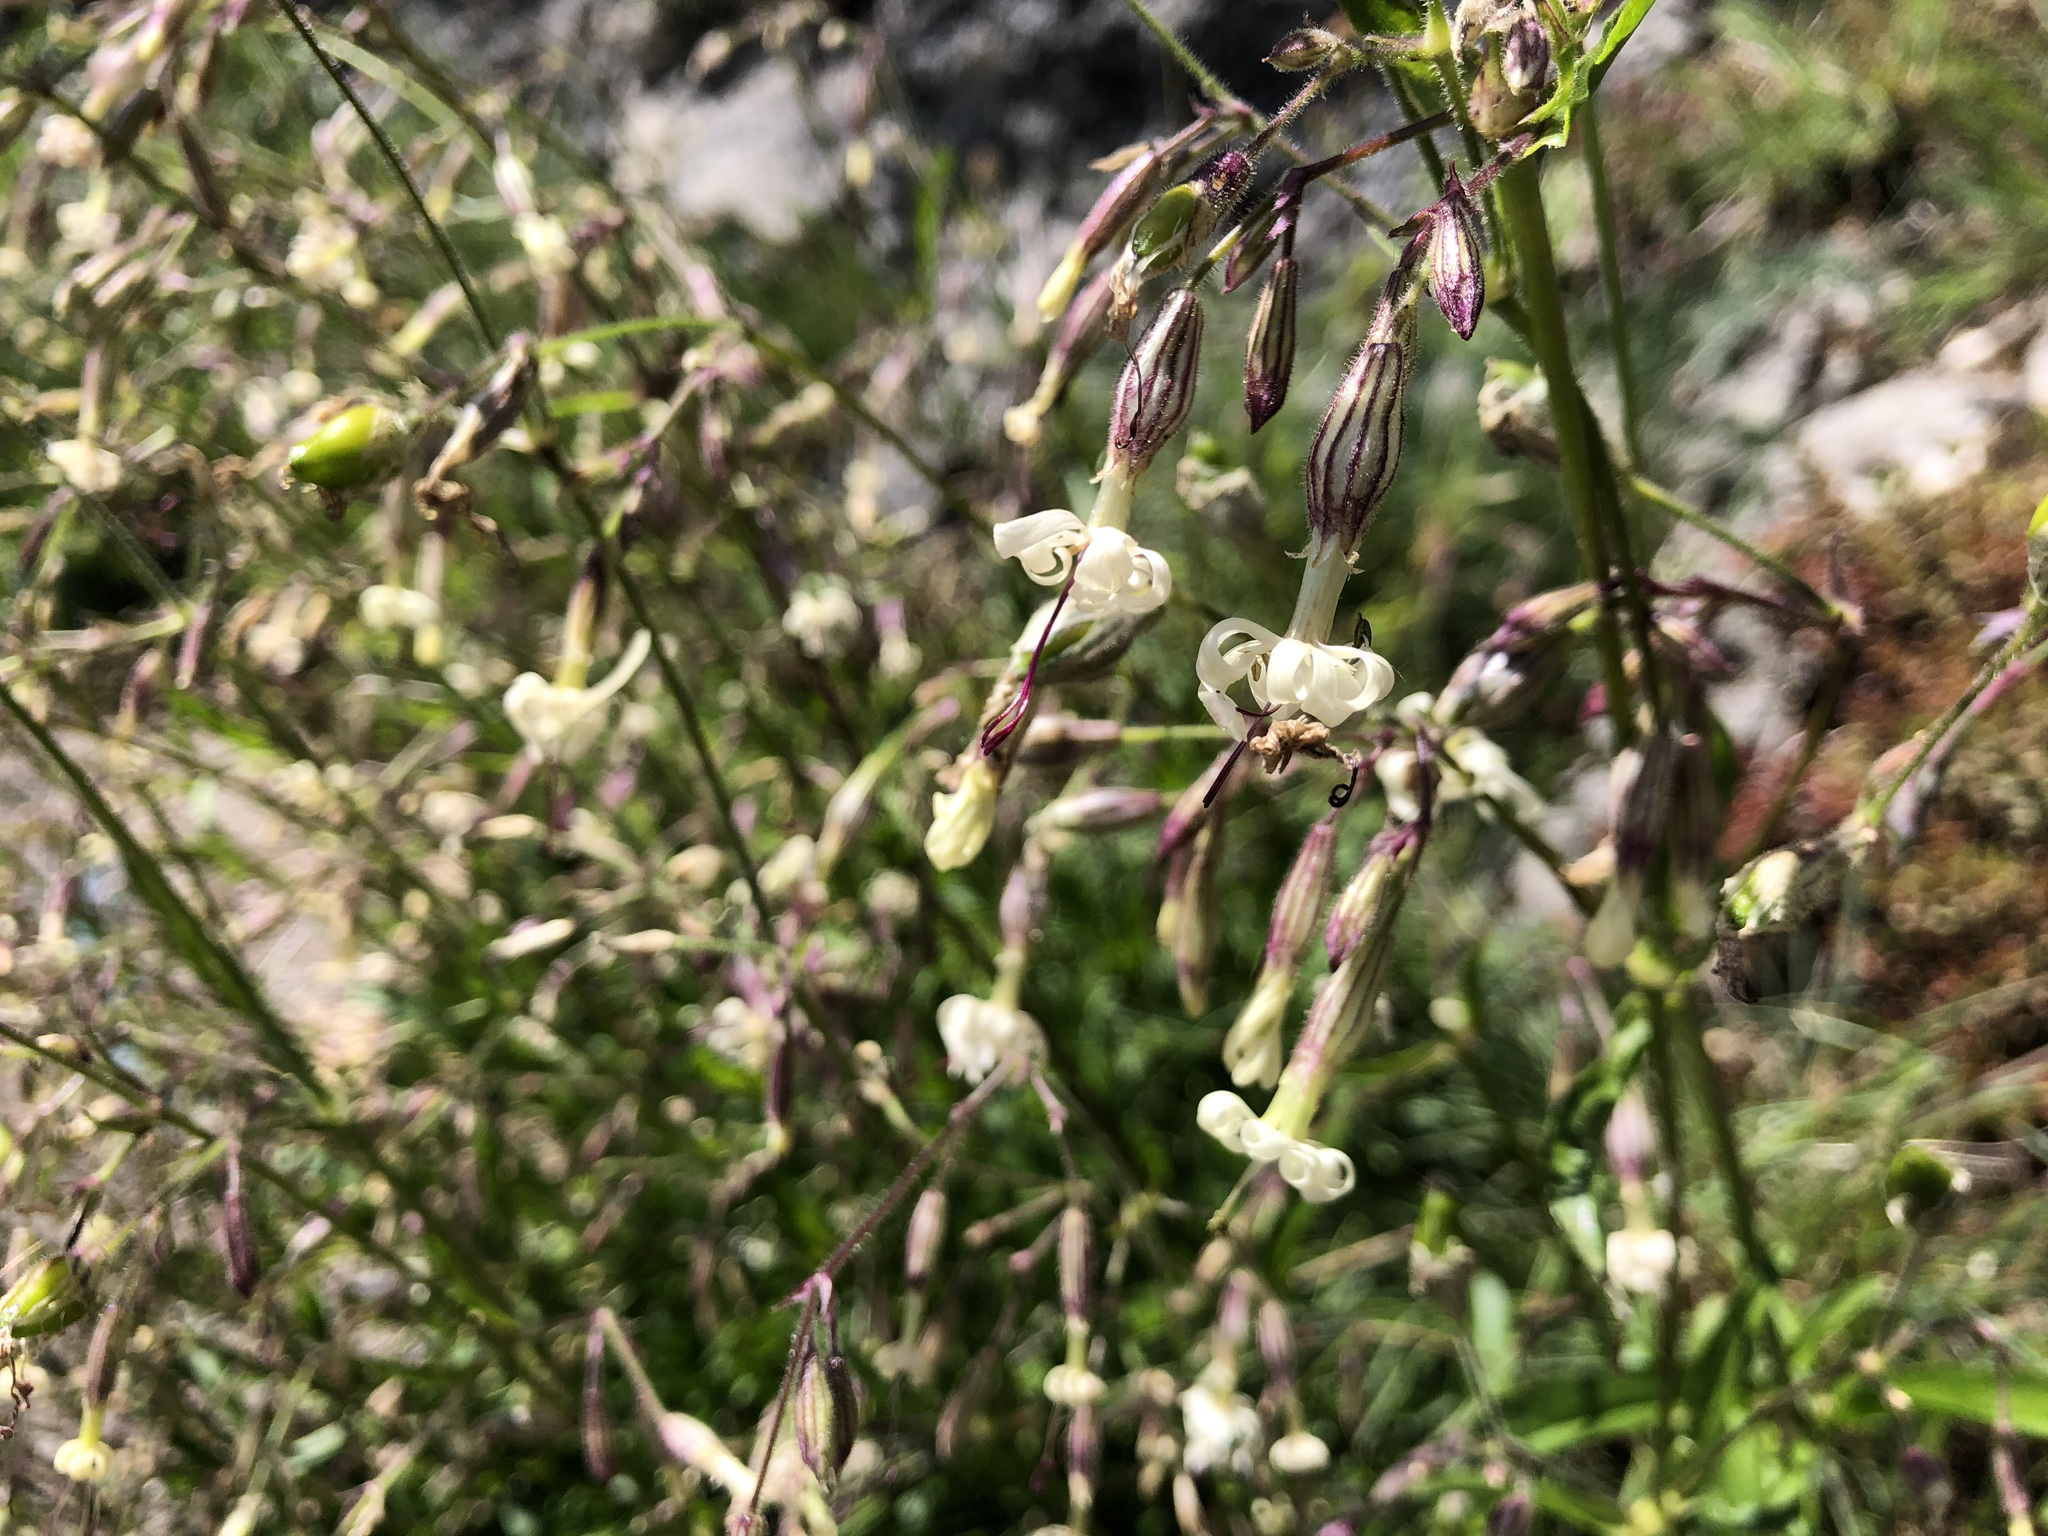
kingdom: Plantae
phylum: Tracheophyta
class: Magnoliopsida
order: Caryophyllales
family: Caryophyllaceae
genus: Silene
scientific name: Silene nutans
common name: Nottingham catchfly
